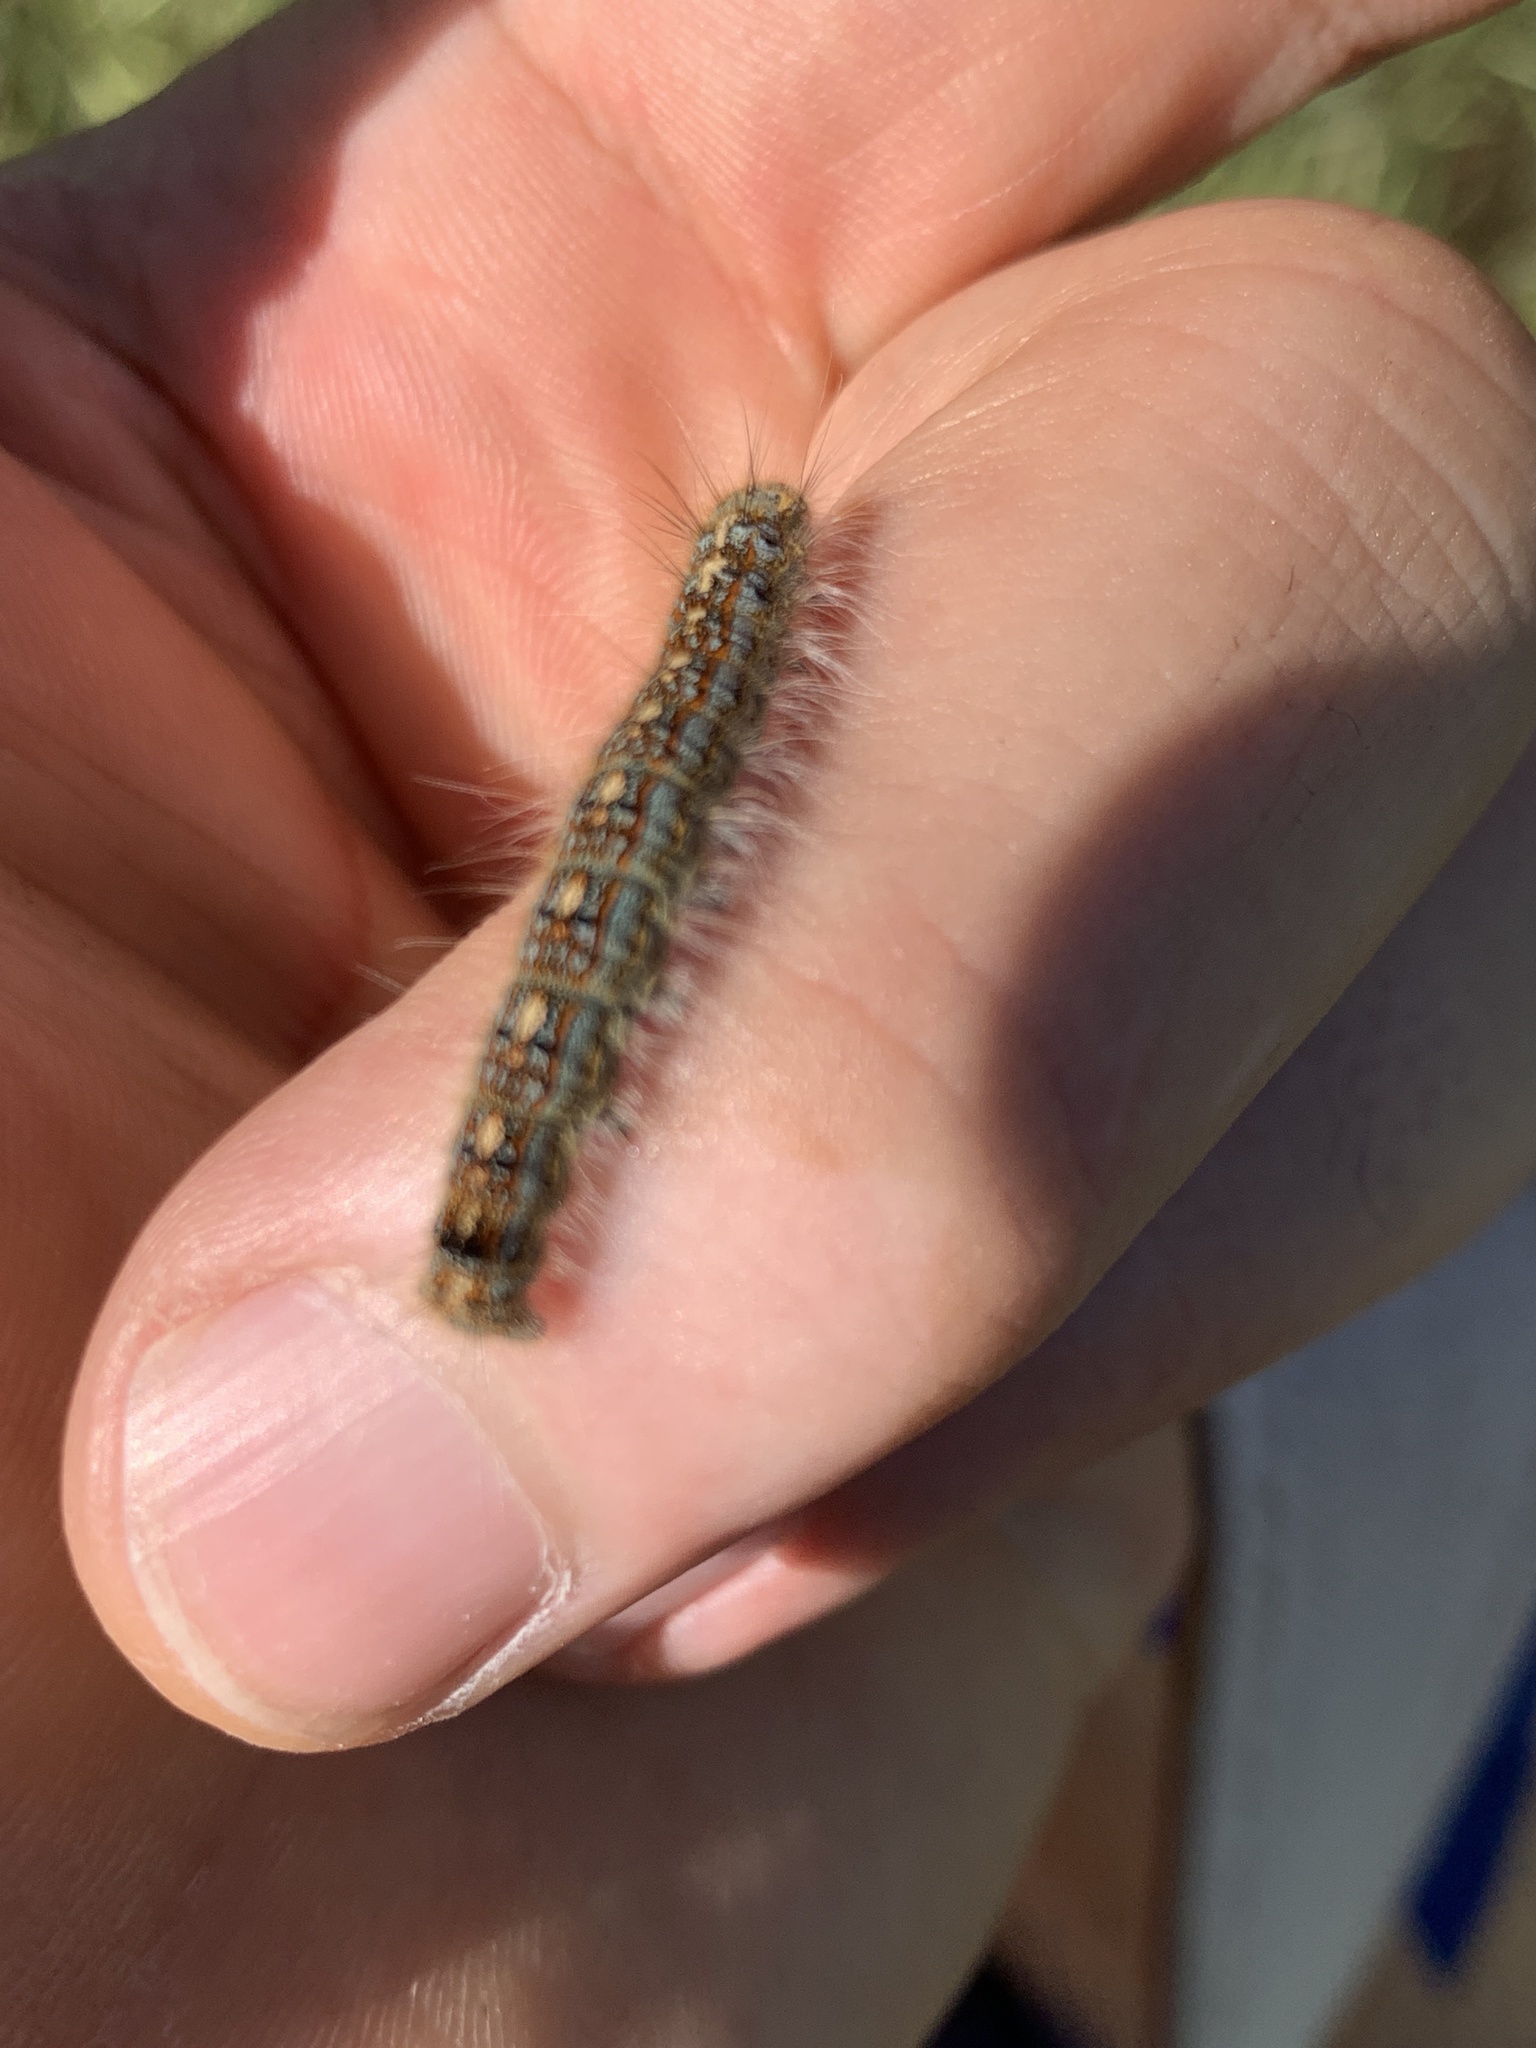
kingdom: Animalia
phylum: Arthropoda
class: Insecta
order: Lepidoptera
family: Lasiocampidae
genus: Malacosoma
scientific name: Malacosoma disstria
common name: Forest tent caterpillar
